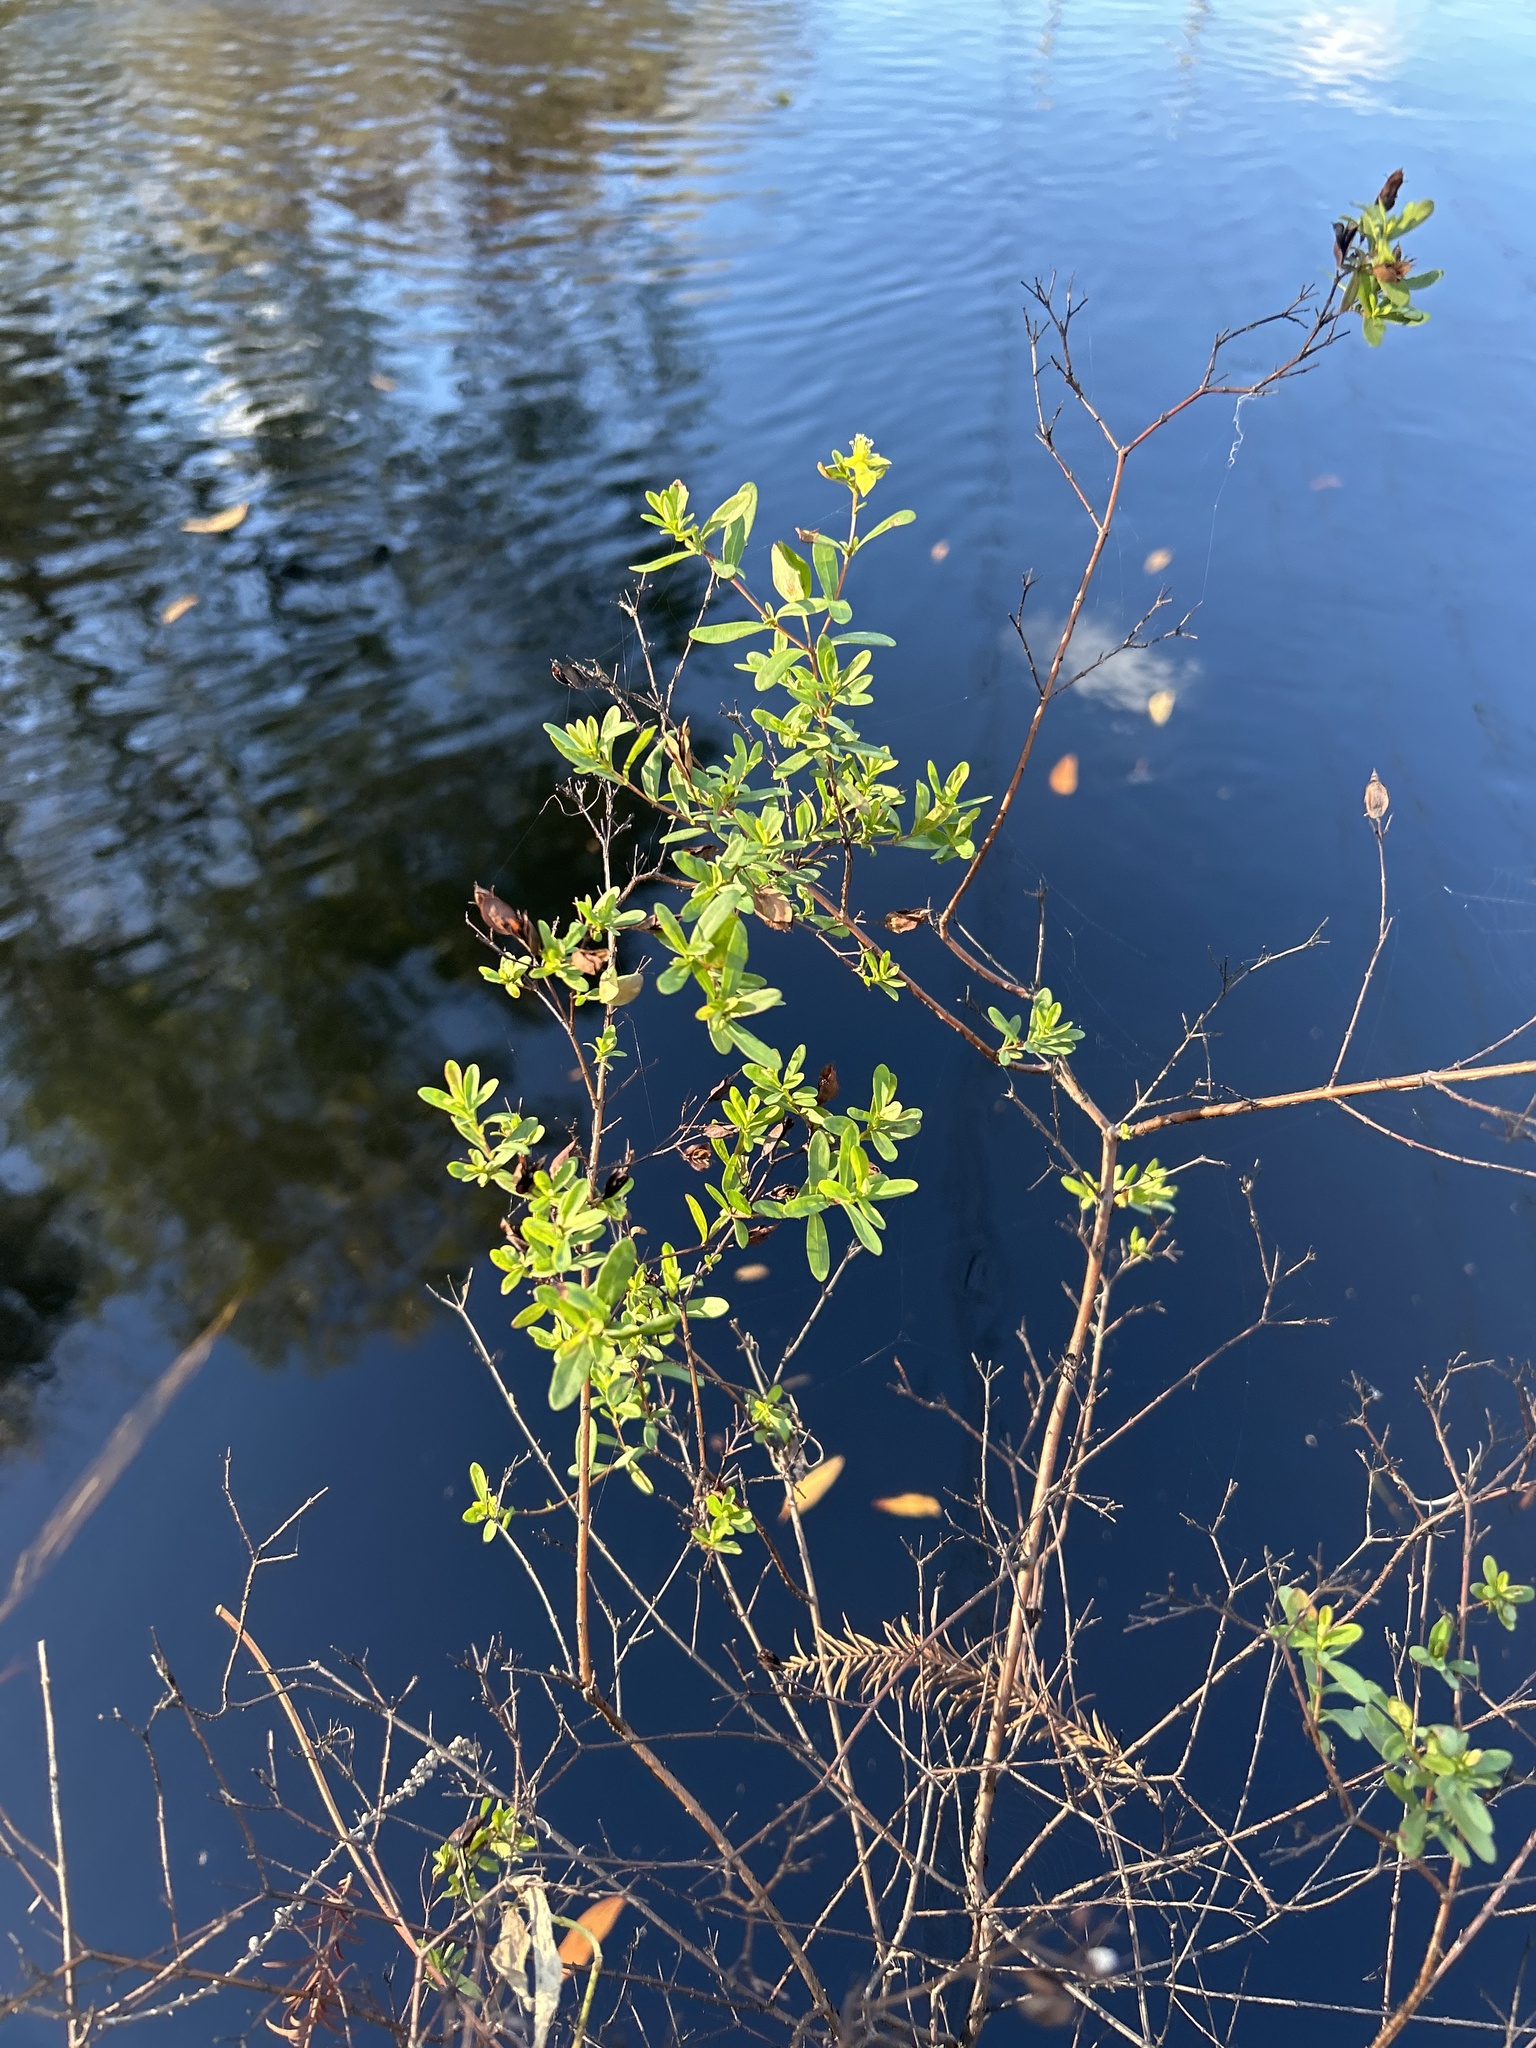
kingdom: Plantae
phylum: Tracheophyta
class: Magnoliopsida
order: Malpighiales
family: Hypericaceae
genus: Hypericum
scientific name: Hypericum hypericoides
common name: St. andrew's cross
